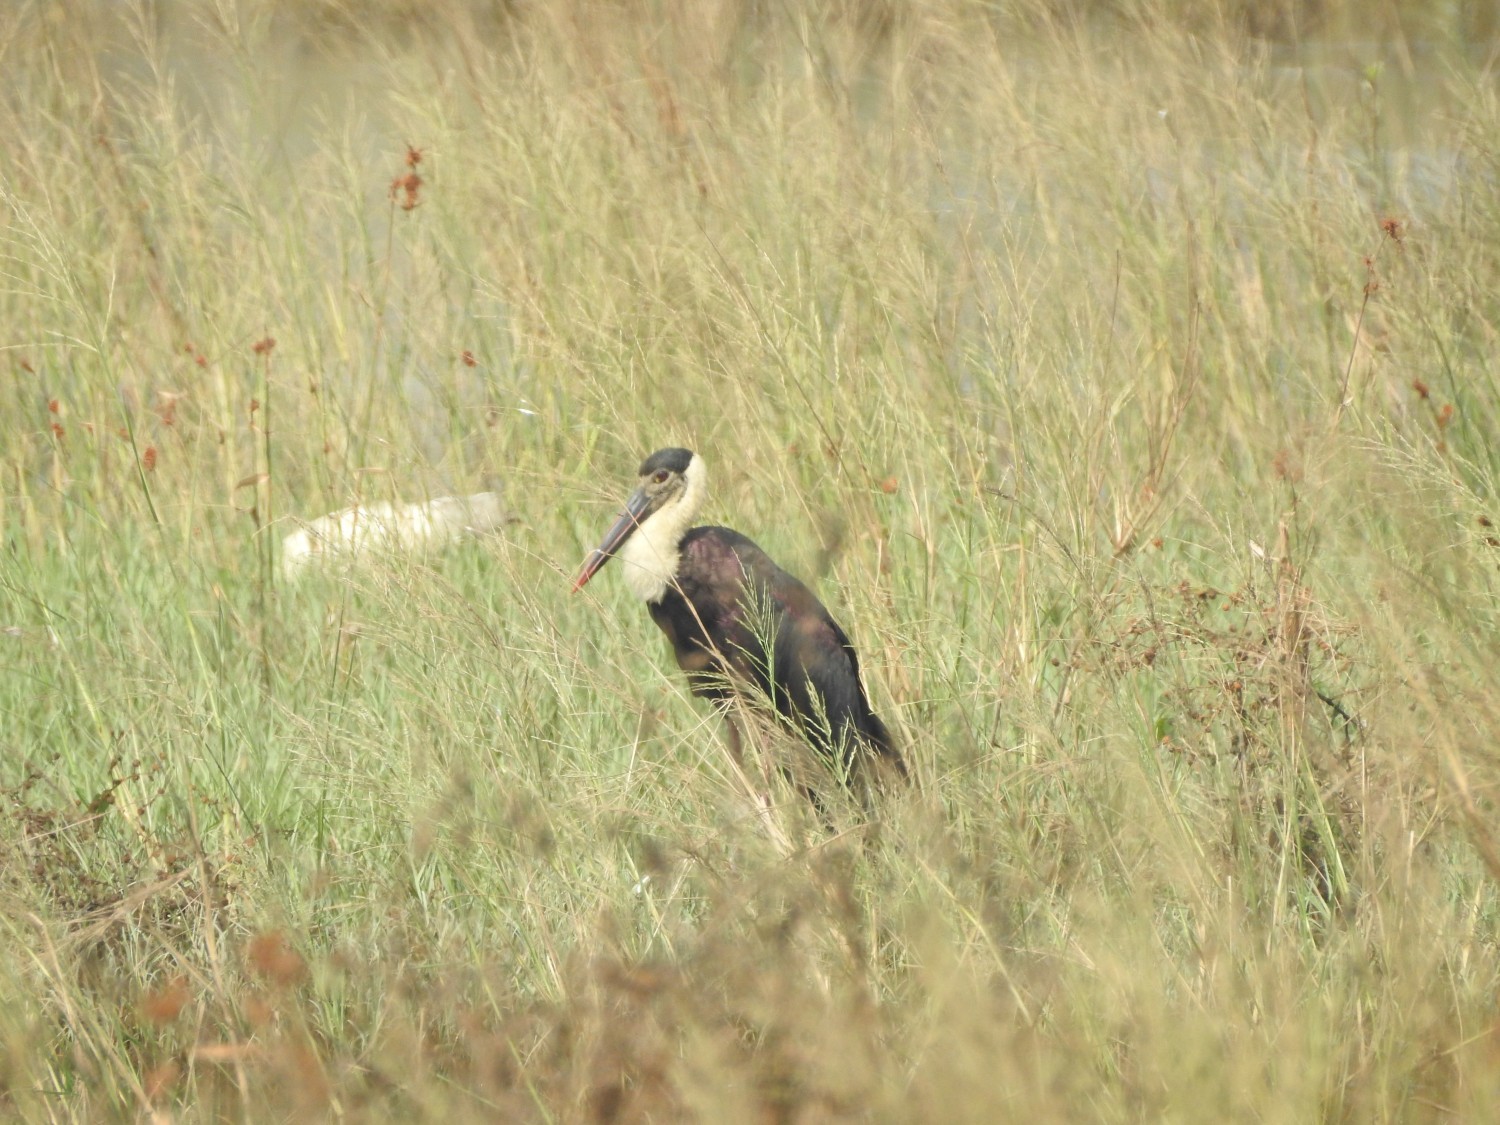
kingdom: Animalia
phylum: Chordata
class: Aves
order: Ciconiiformes
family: Ciconiidae
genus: Ciconia
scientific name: Ciconia episcopus
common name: Woolly-necked stork
